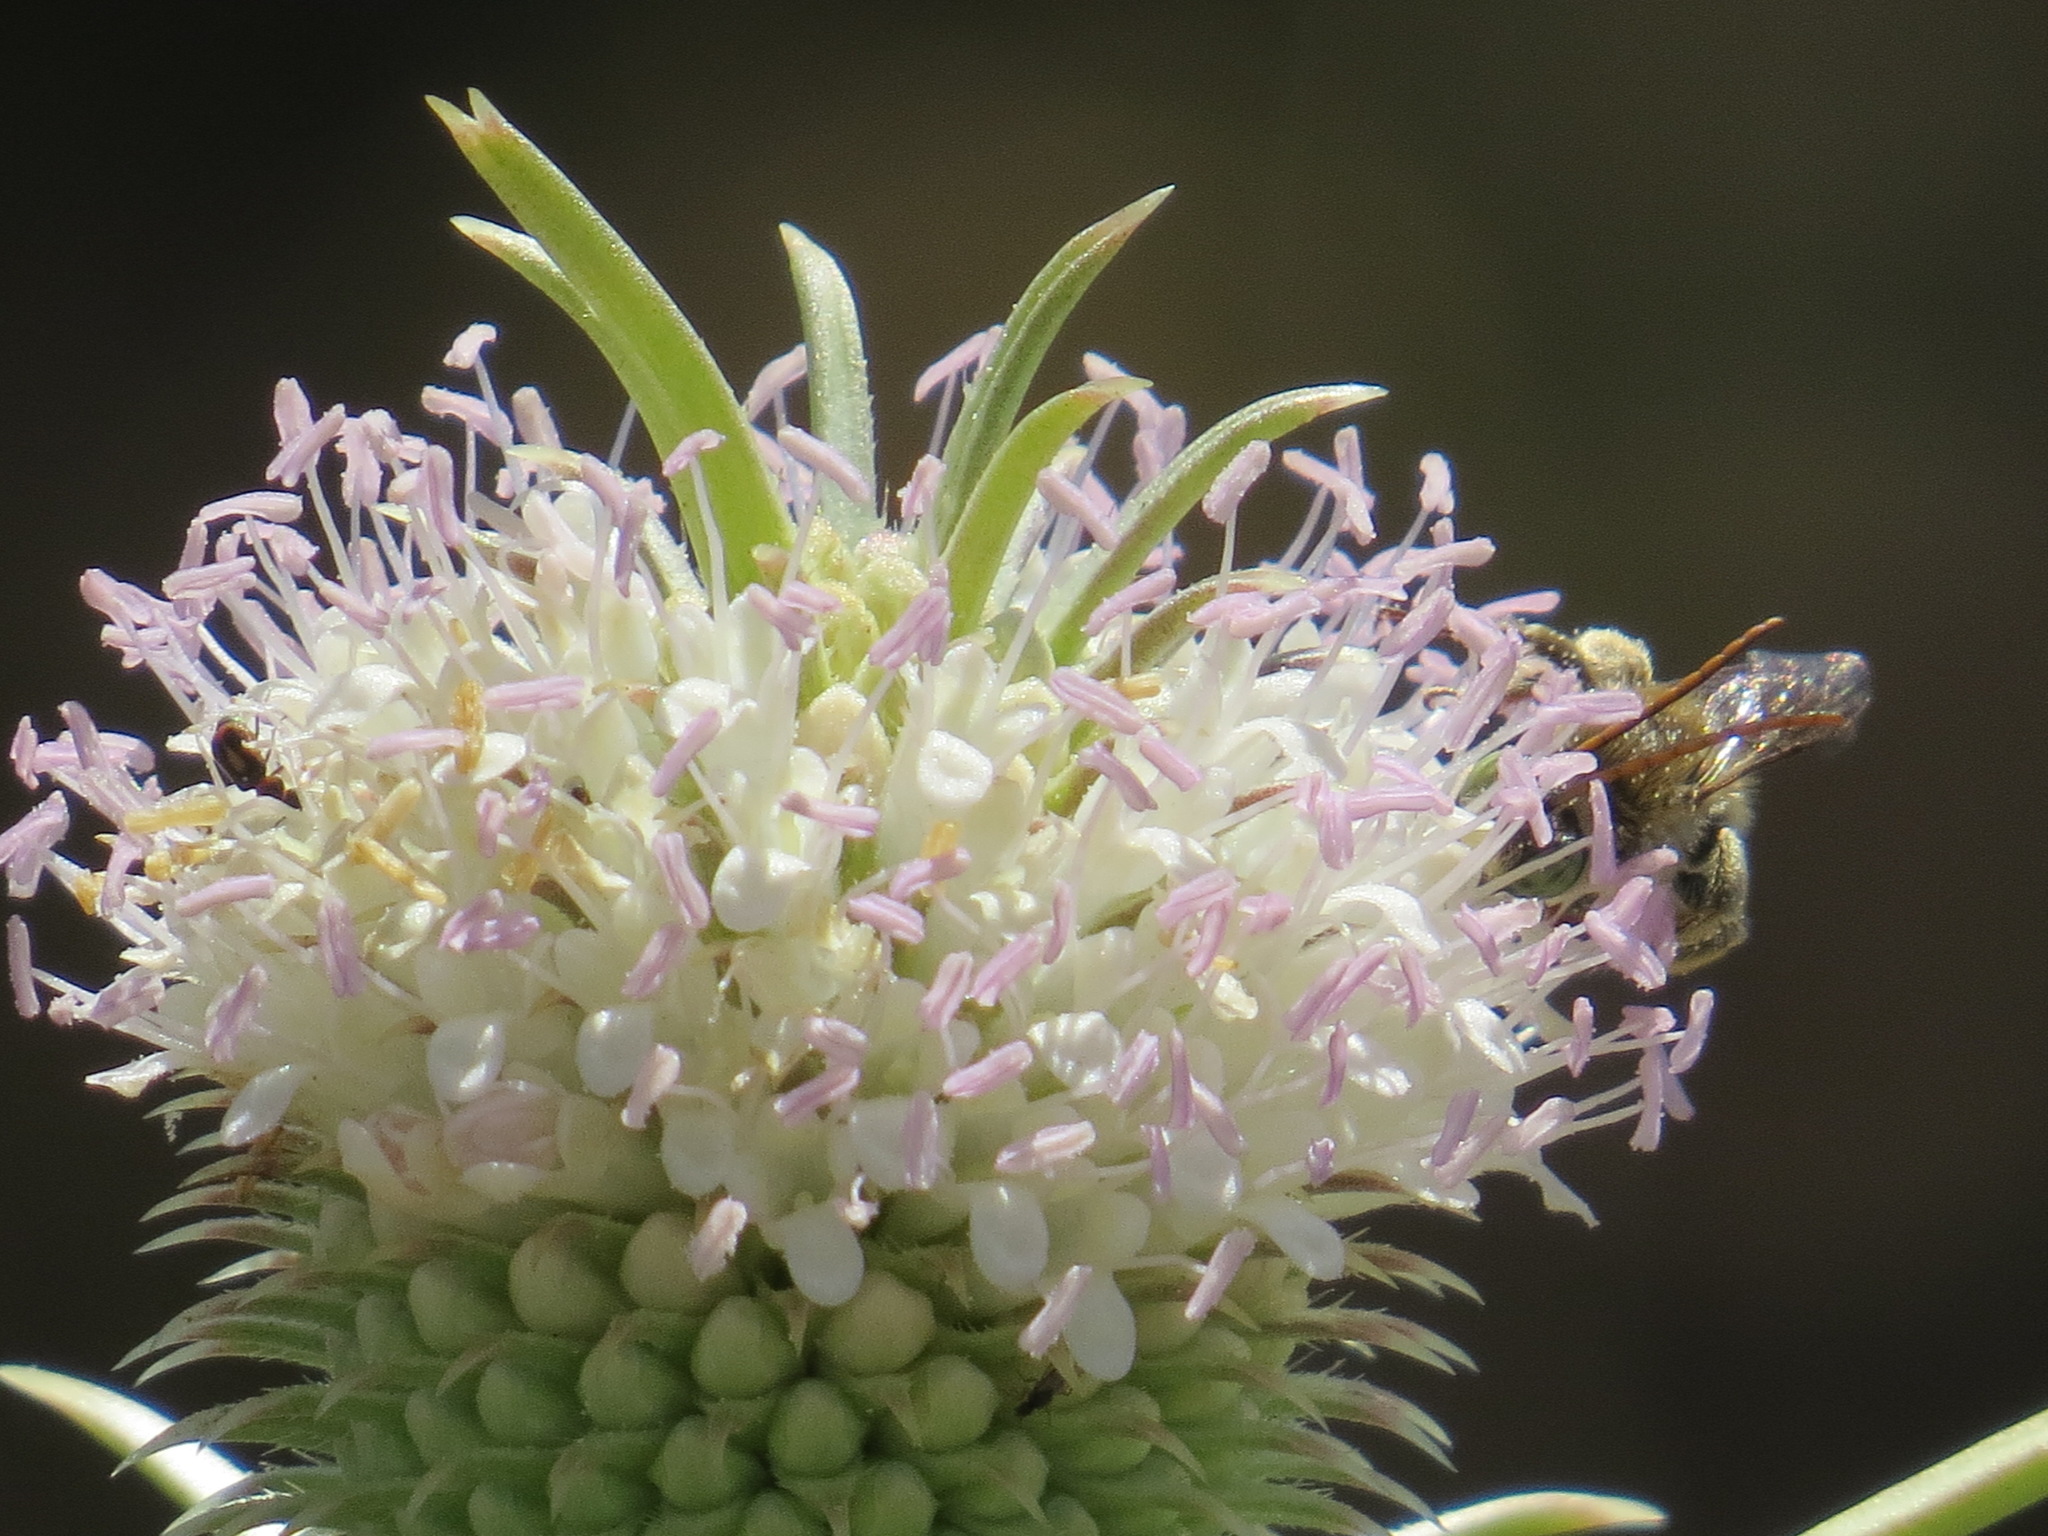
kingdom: Plantae
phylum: Tracheophyta
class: Magnoliopsida
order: Dipsacales
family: Caprifoliaceae
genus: Dipsacus
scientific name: Dipsacus sativus
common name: Fuller's teasel
